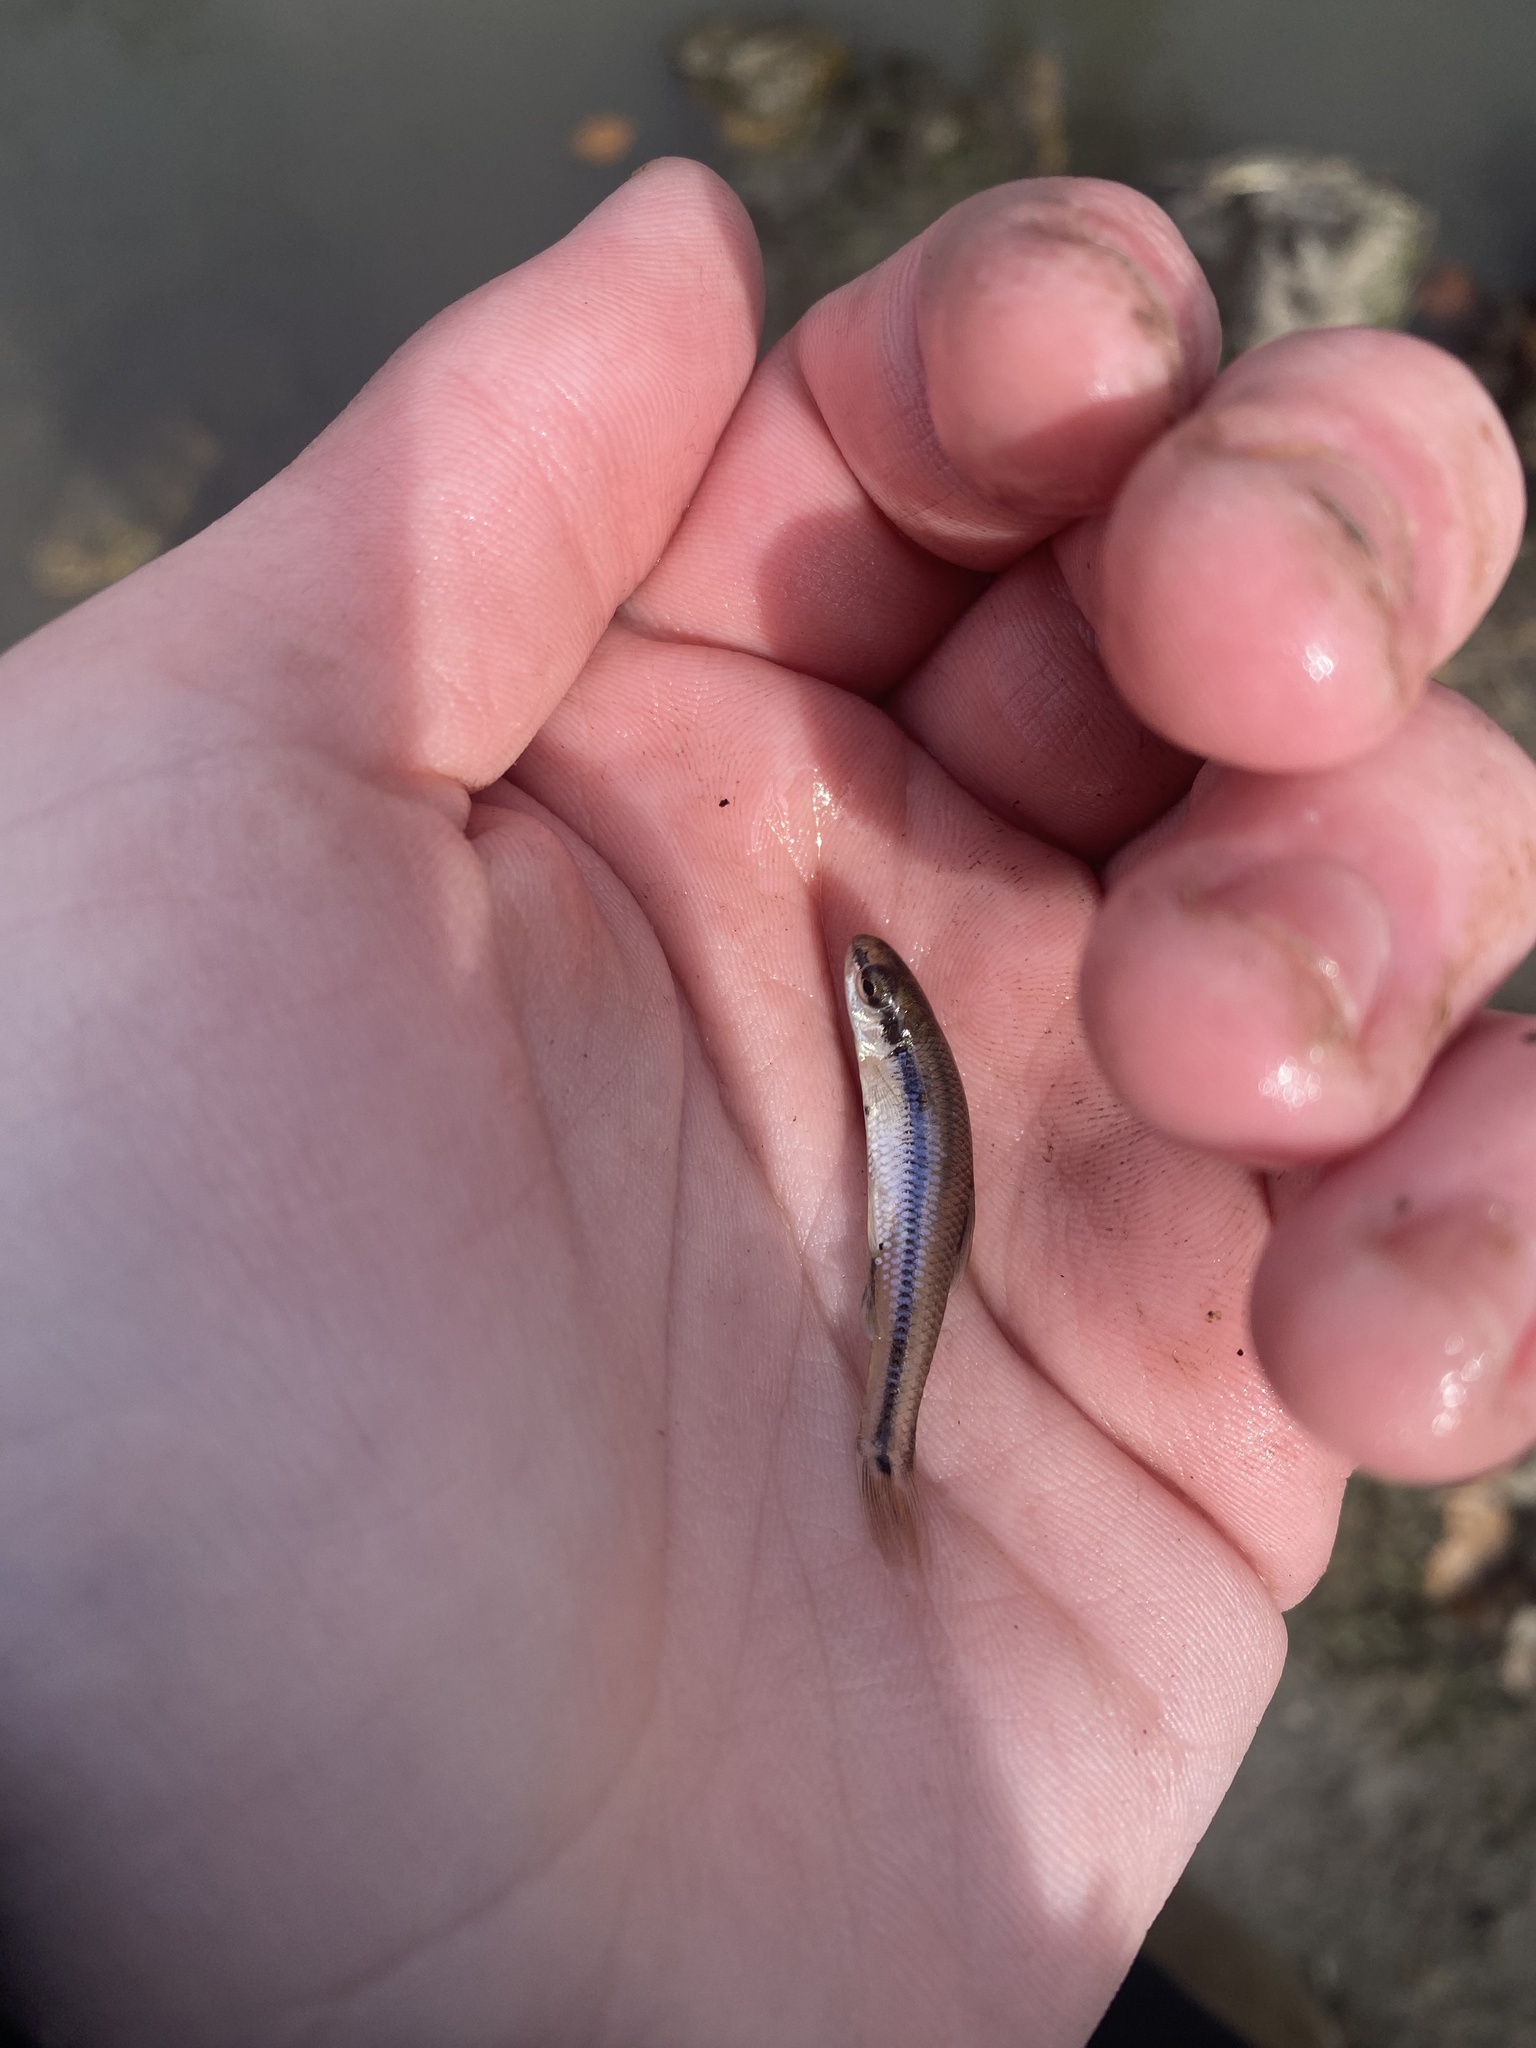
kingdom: Animalia
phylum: Chordata
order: Cypriniformes
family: Cyprinidae
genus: Pimephales
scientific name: Pimephales notatus
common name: Bluntnose minnow
